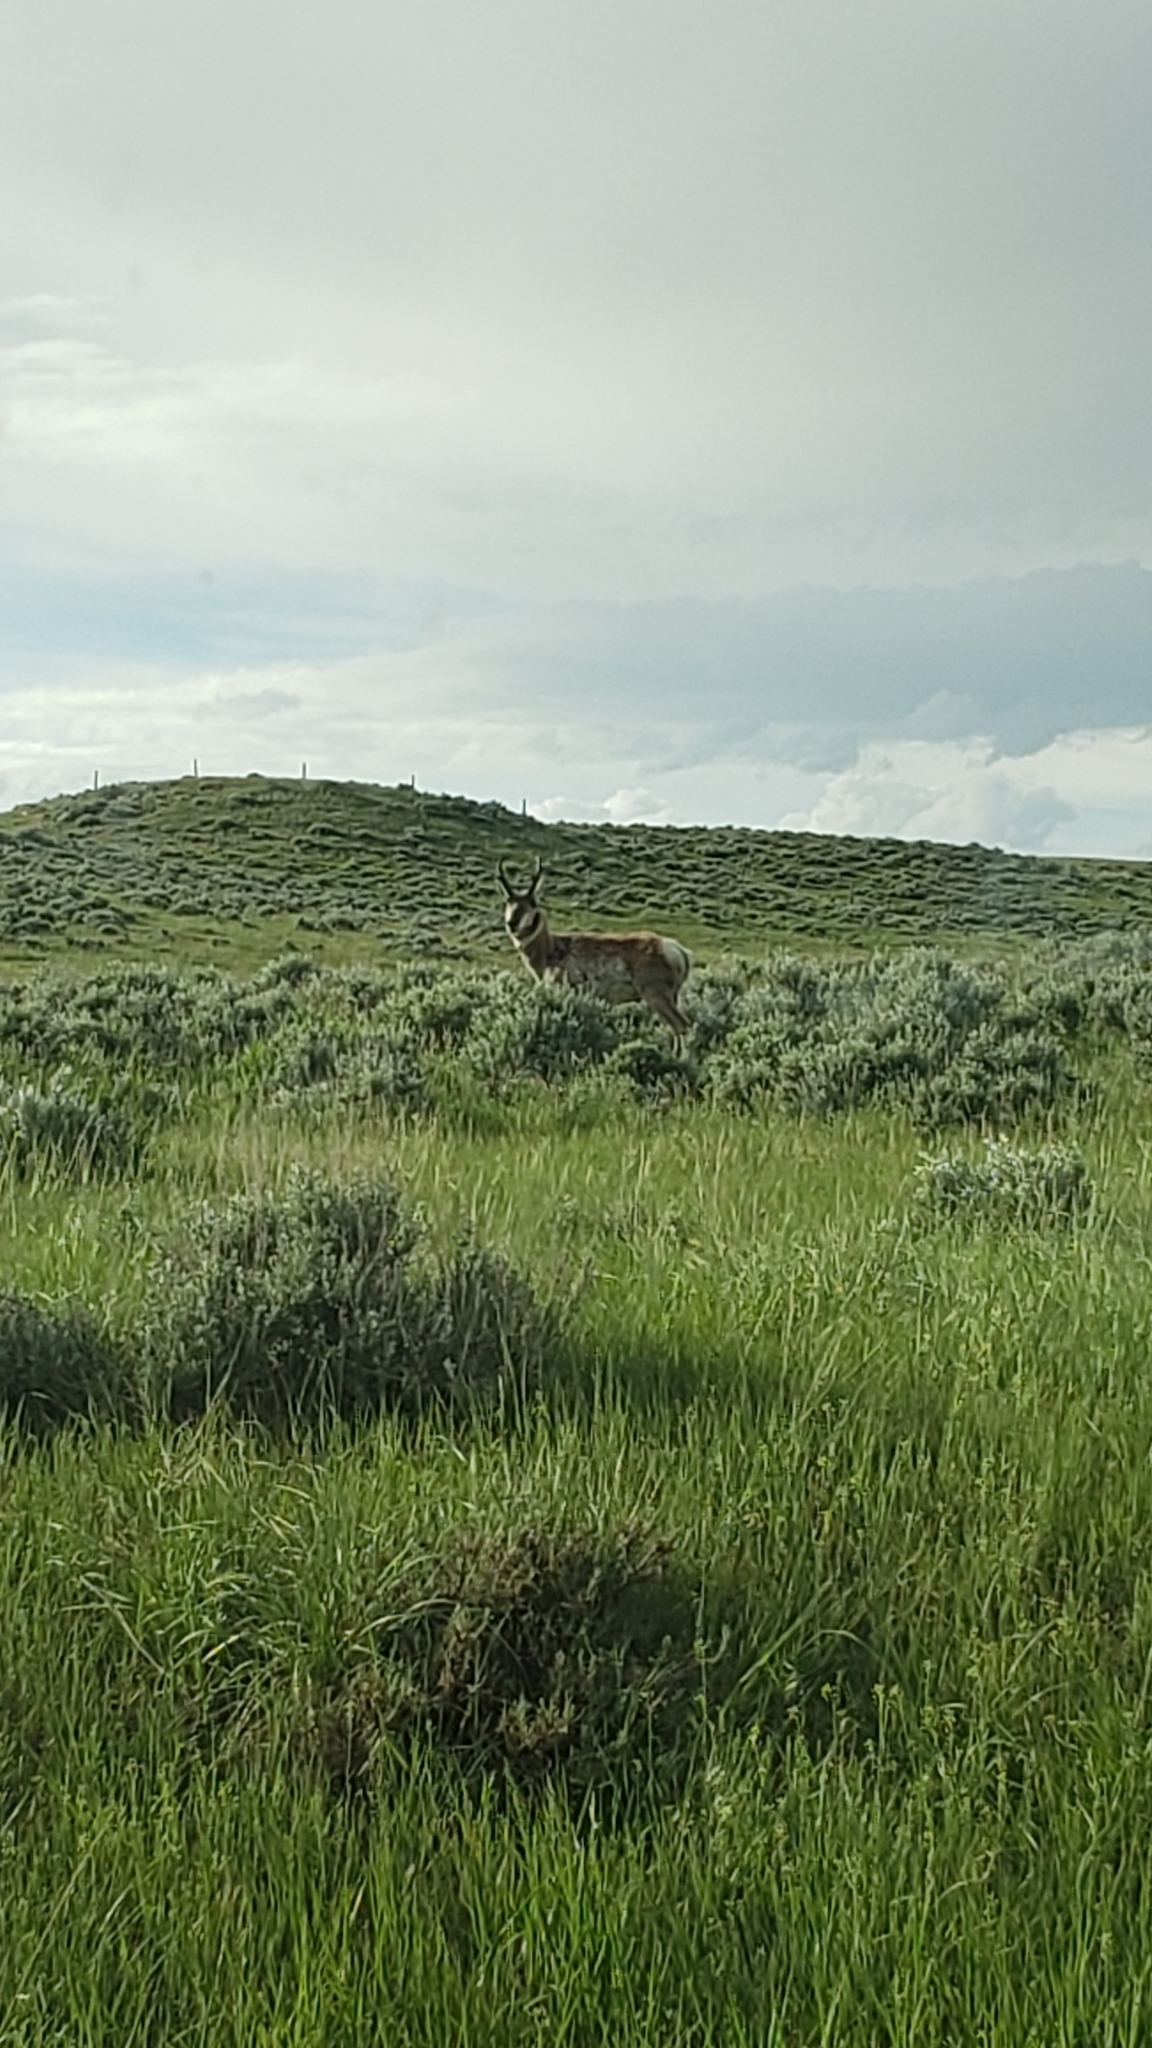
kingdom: Animalia
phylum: Chordata
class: Mammalia
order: Artiodactyla
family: Antilocapridae
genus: Antilocapra
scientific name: Antilocapra americana
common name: Pronghorn
